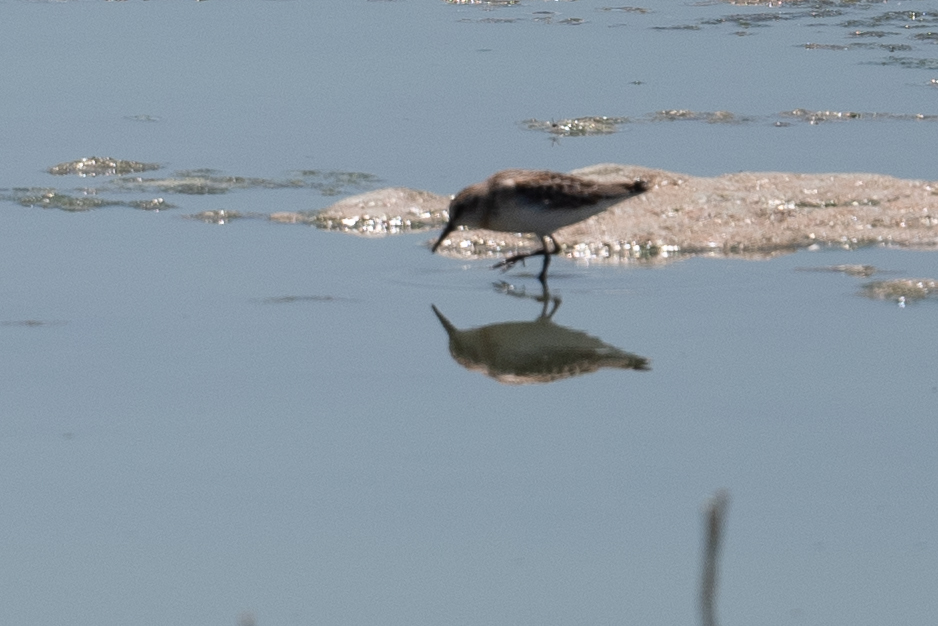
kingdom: Animalia
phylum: Chordata
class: Aves
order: Charadriiformes
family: Scolopacidae
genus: Calidris
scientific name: Calidris mauri
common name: Western sandpiper
